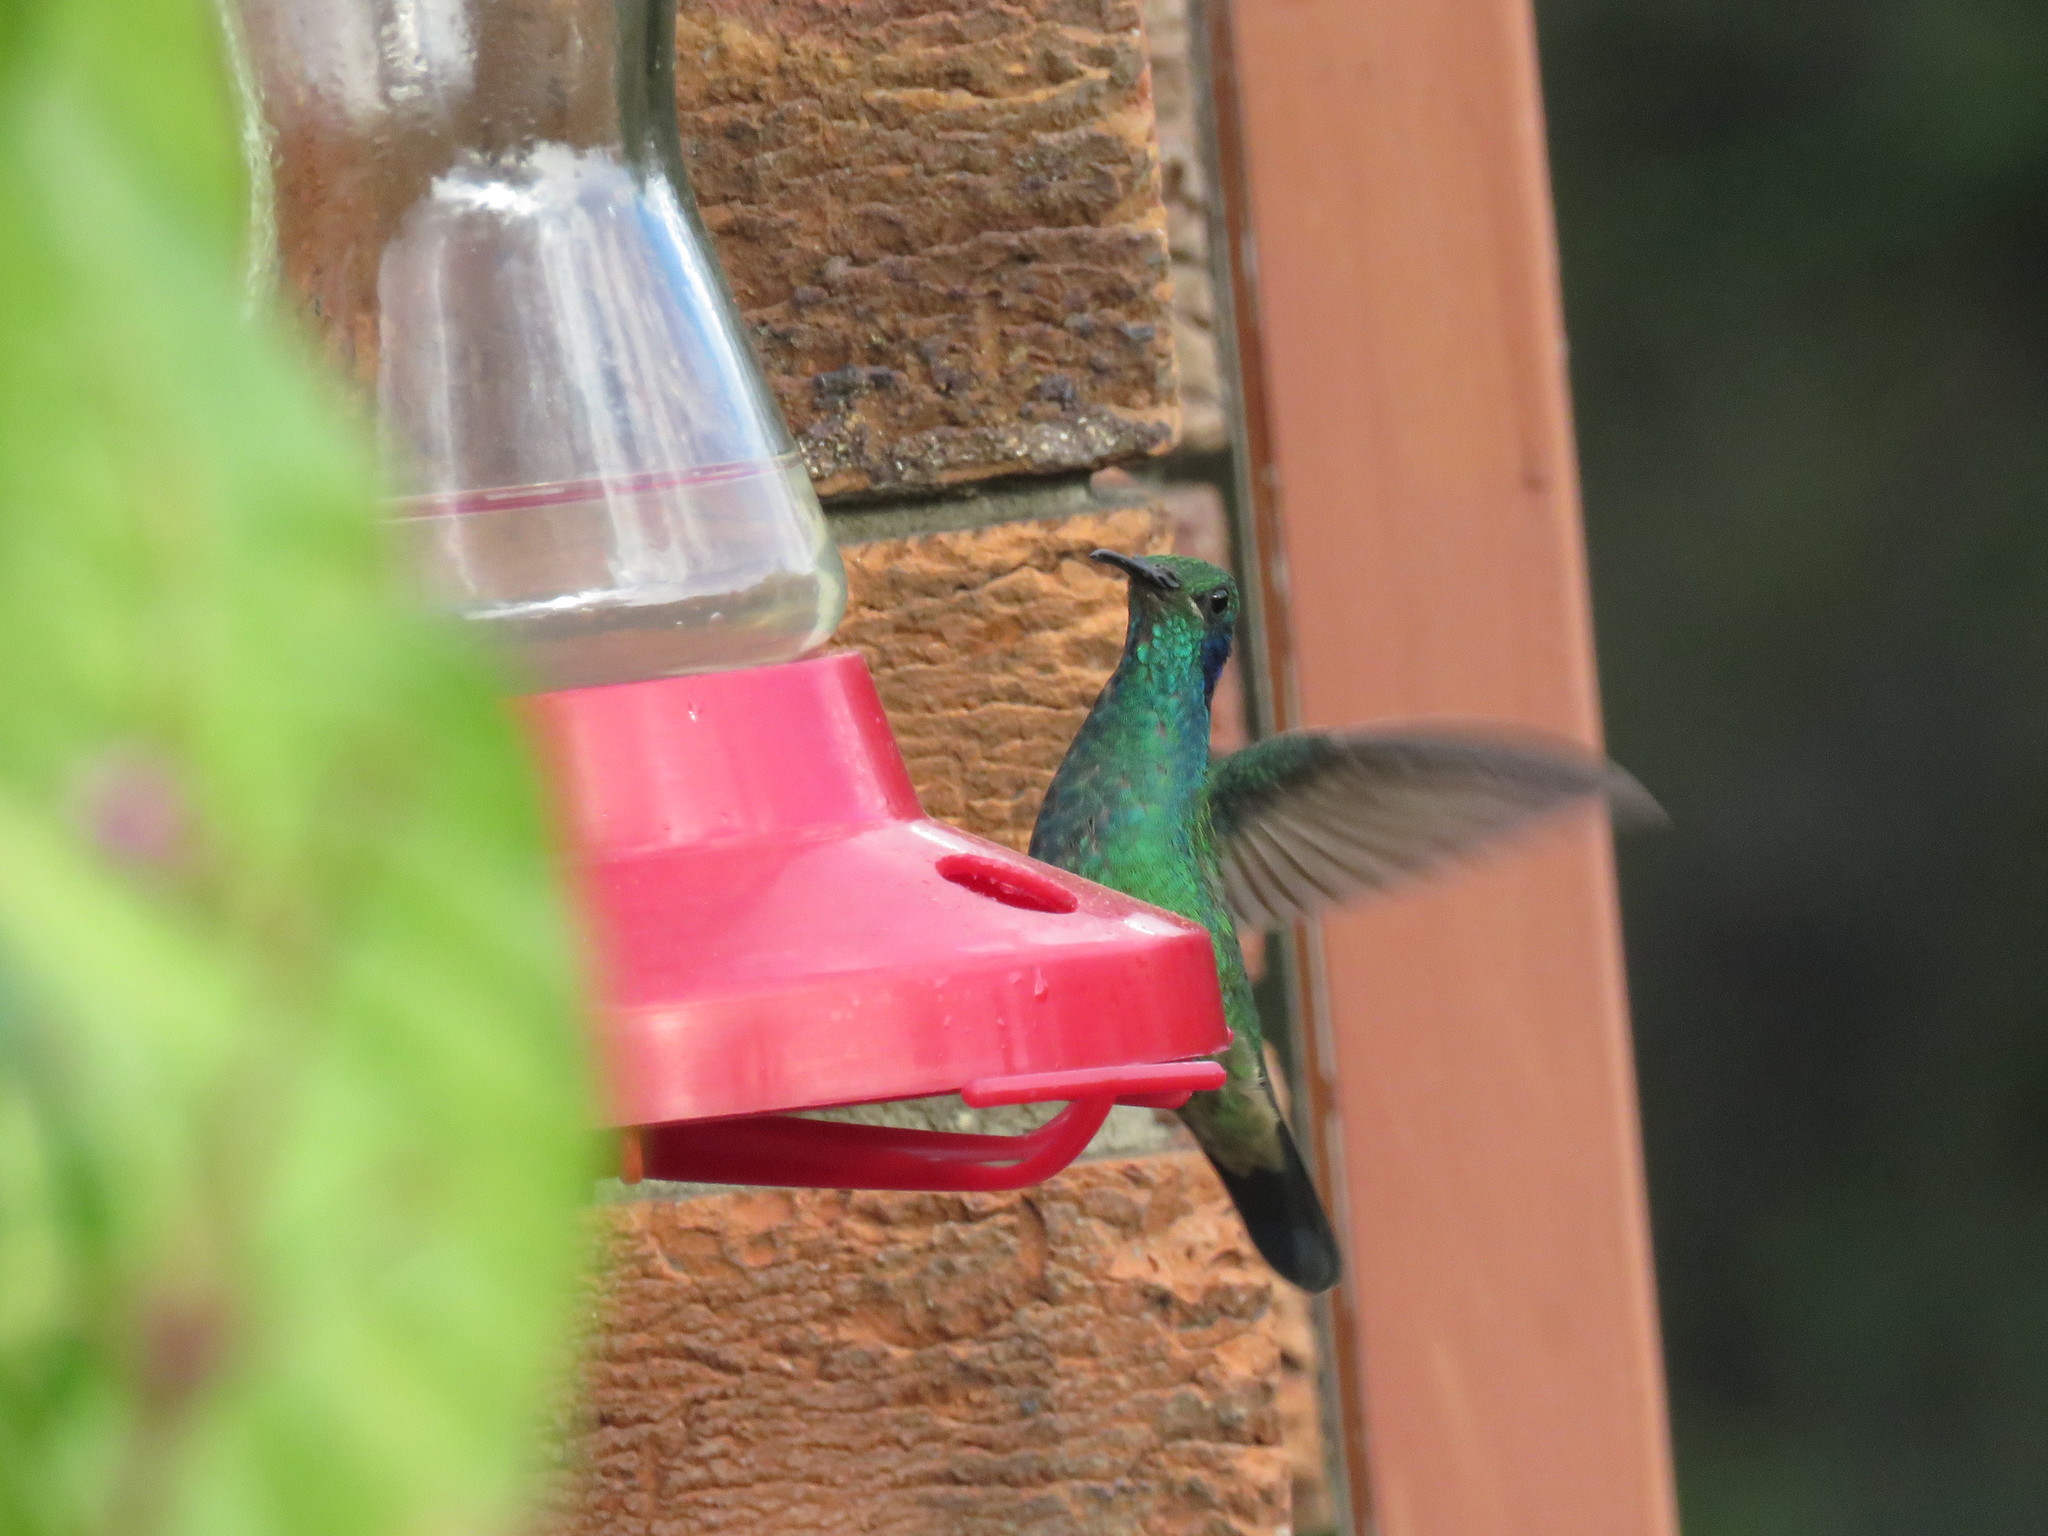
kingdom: Animalia
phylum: Chordata
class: Aves
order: Apodiformes
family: Trochilidae
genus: Colibri
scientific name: Colibri cyanotus
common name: Lesser violetear
